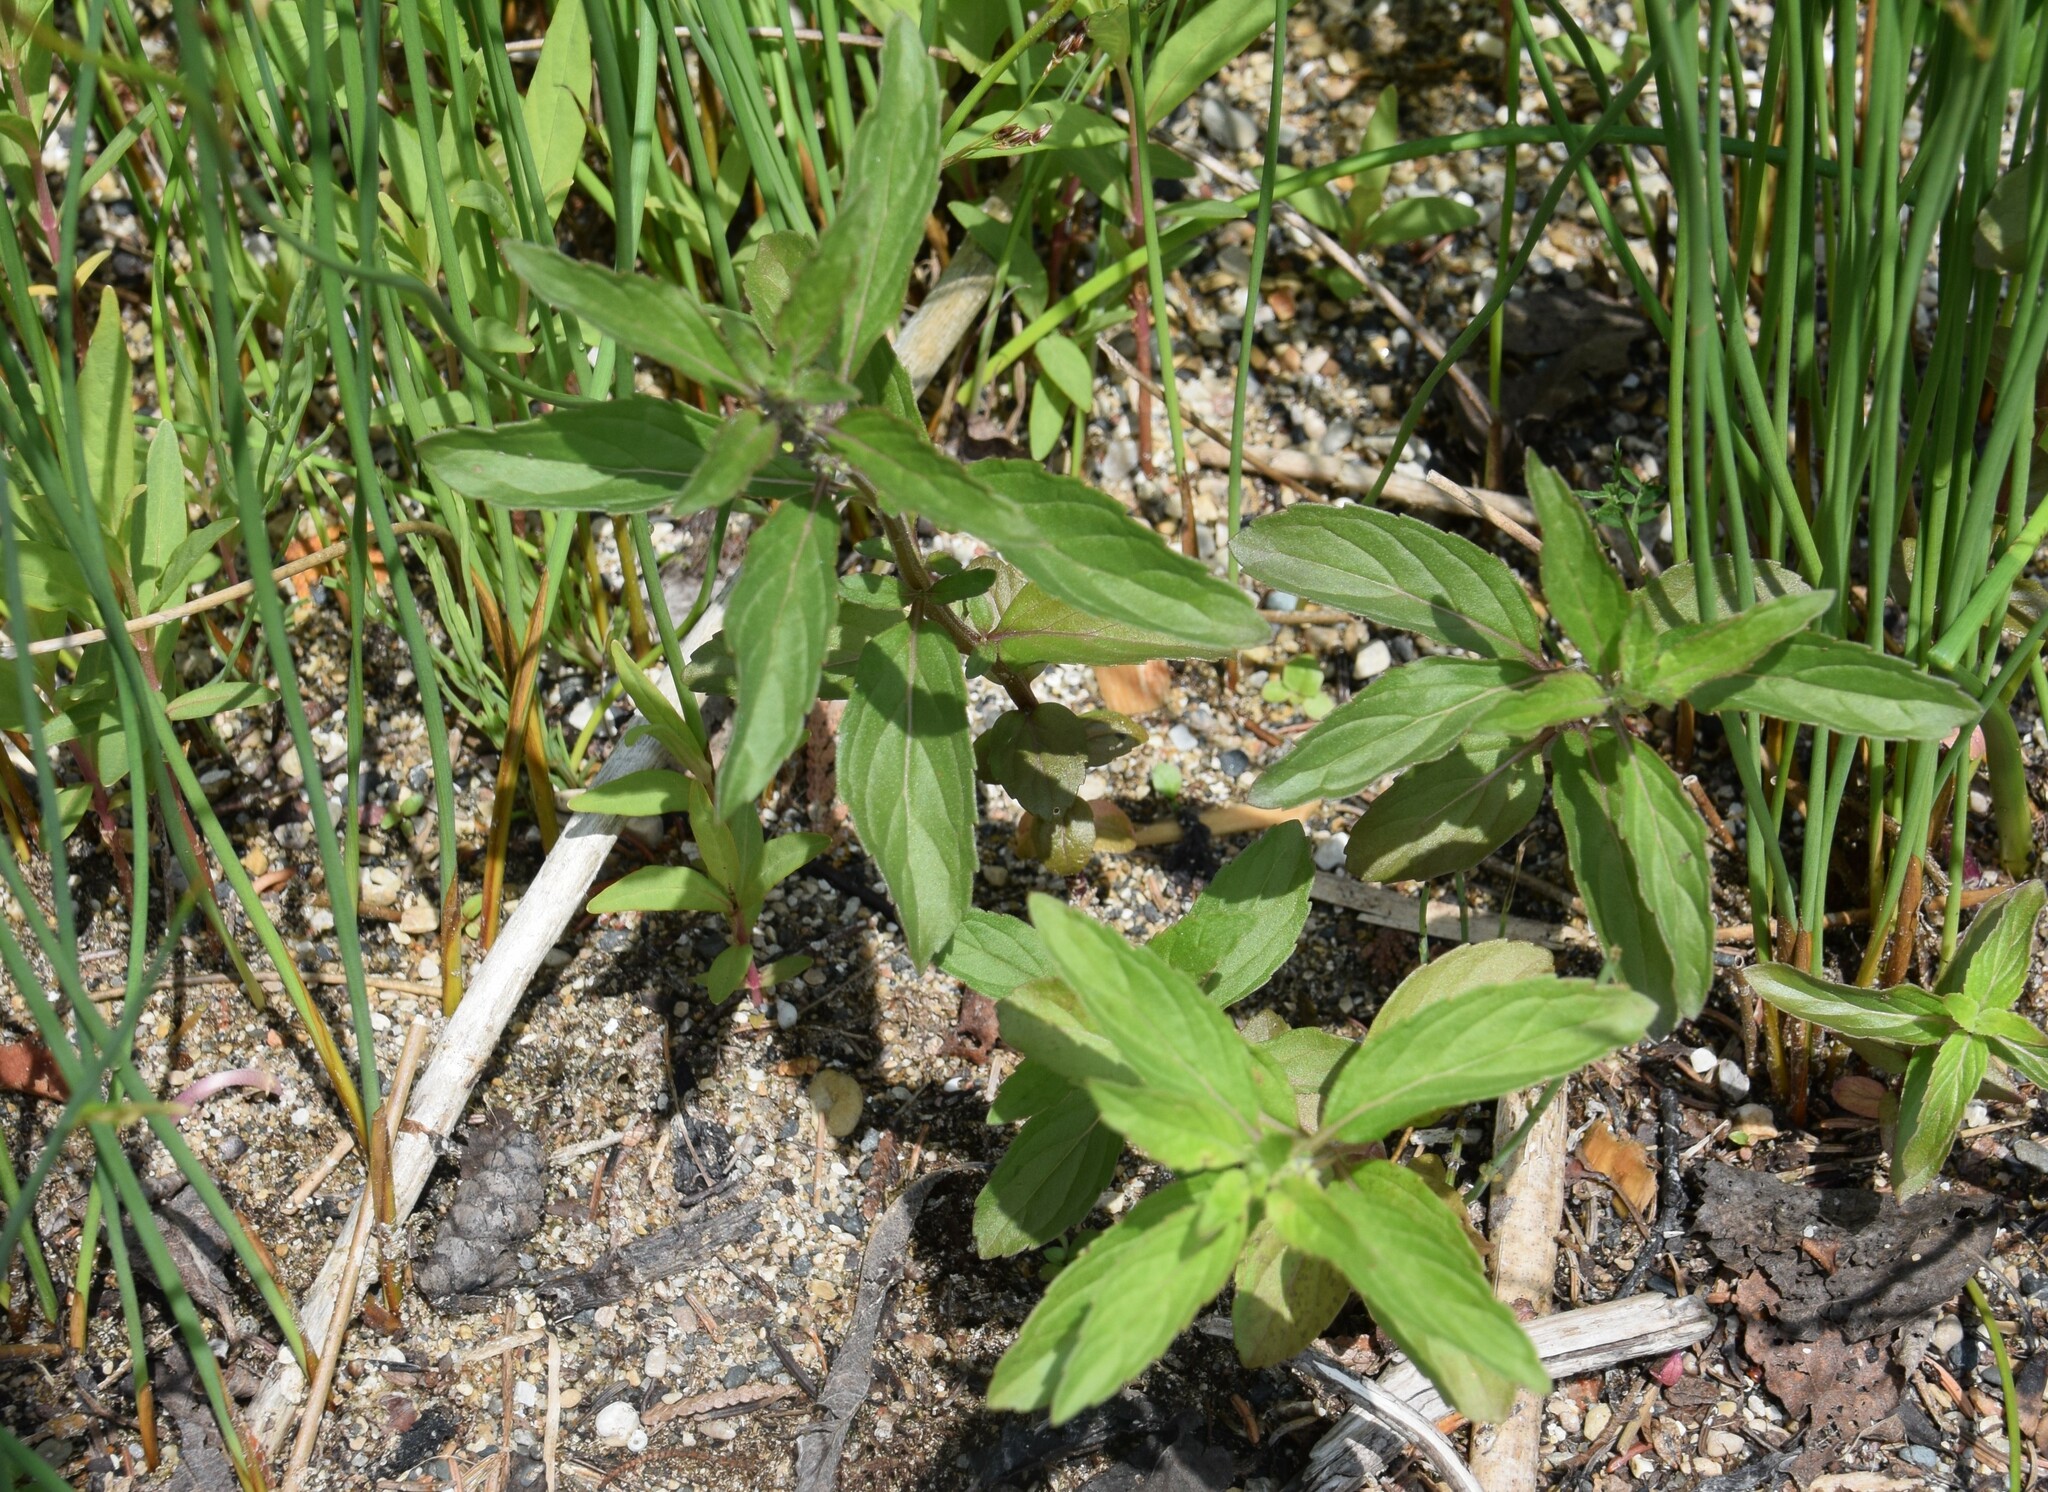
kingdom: Plantae
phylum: Tracheophyta
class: Magnoliopsida
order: Lamiales
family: Lamiaceae
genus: Mentha
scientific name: Mentha canadensis
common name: American corn mint
